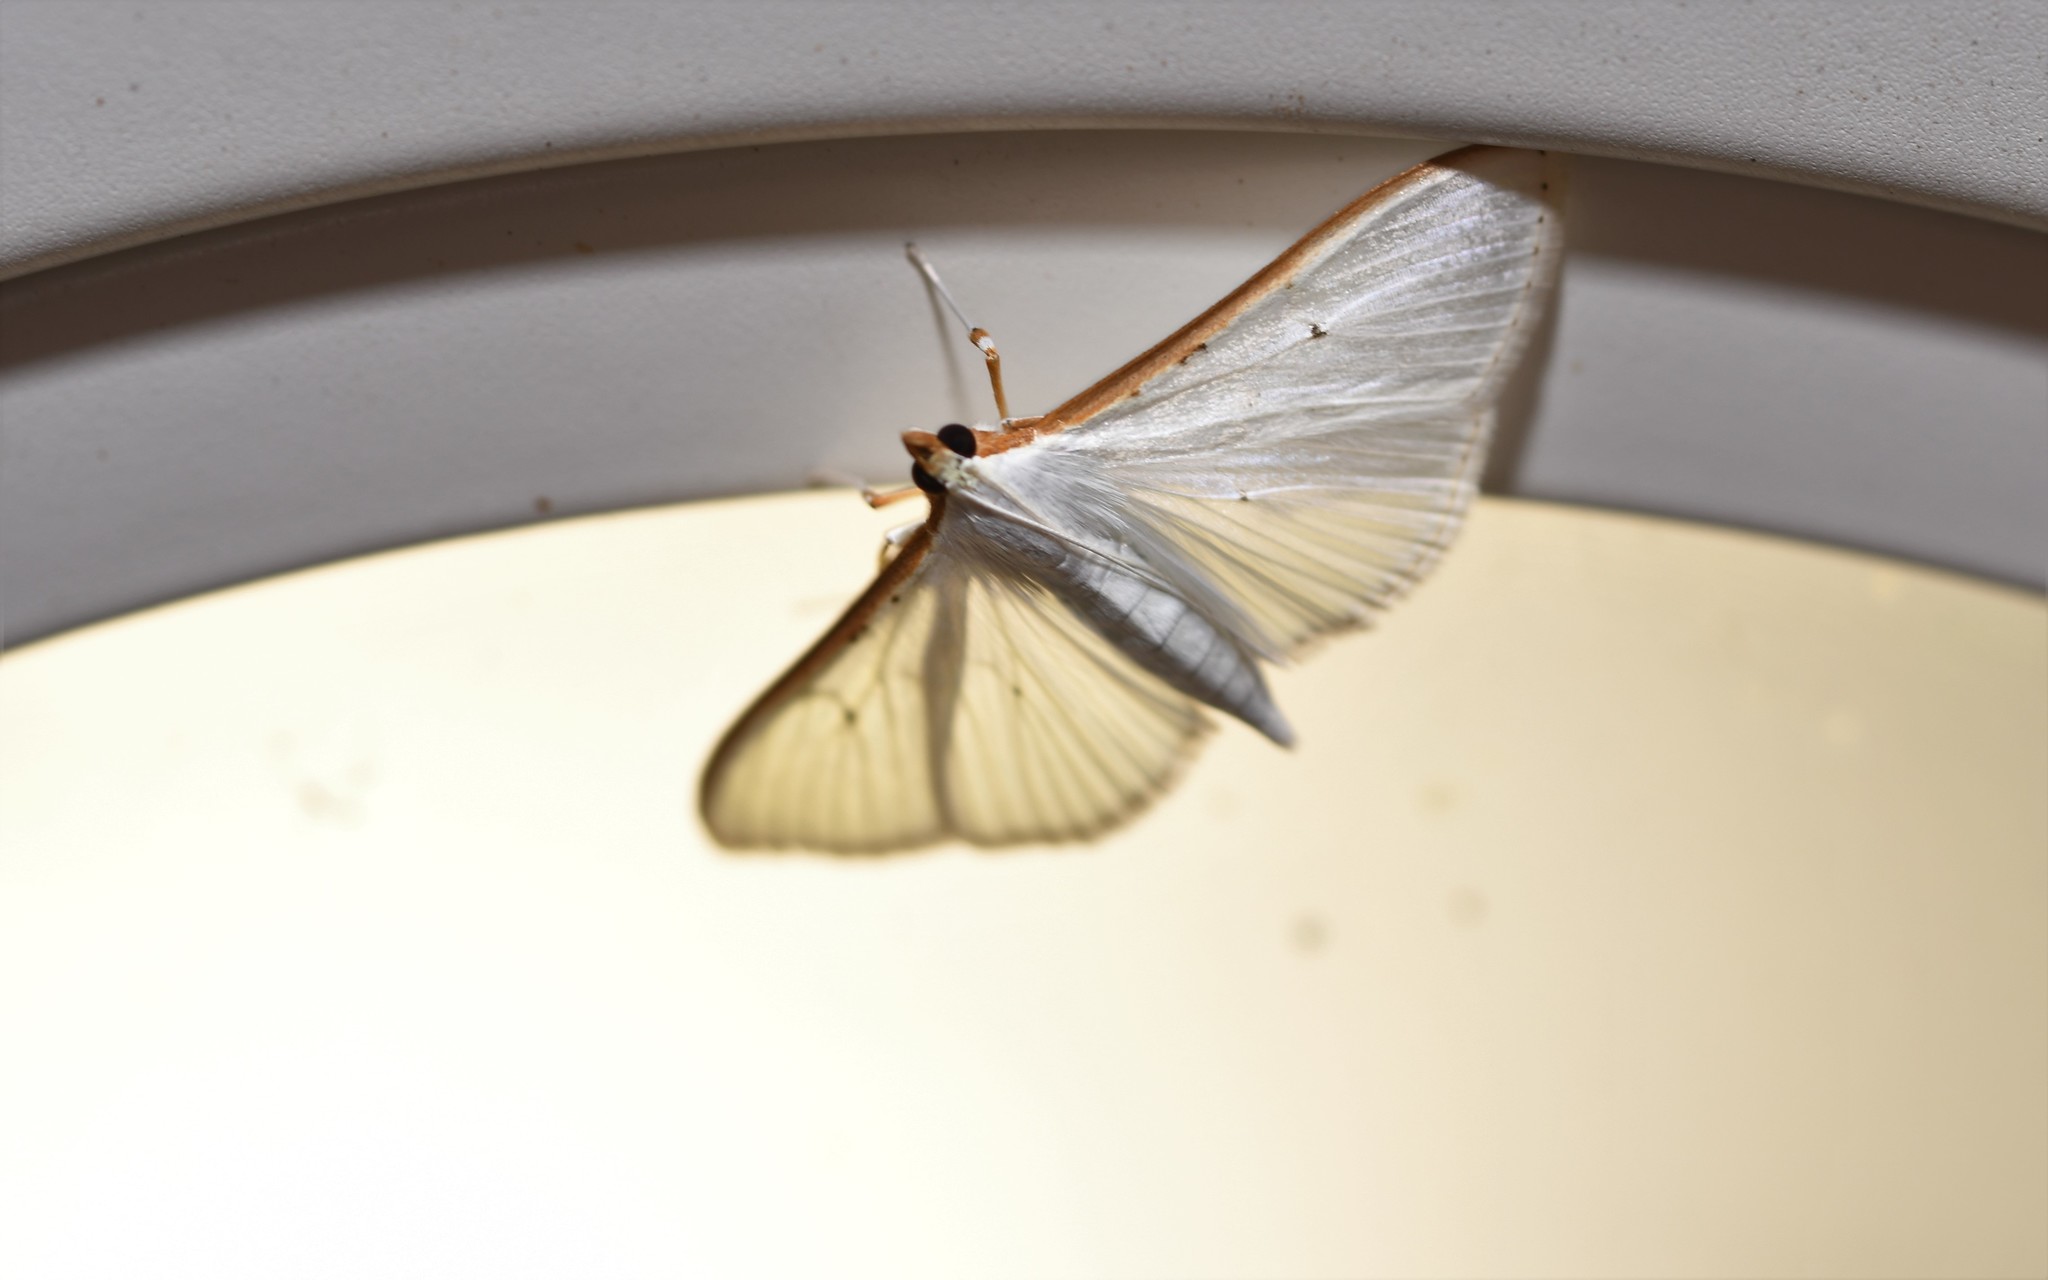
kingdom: Animalia
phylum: Arthropoda
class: Insecta
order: Lepidoptera
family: Crambidae
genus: Palpita
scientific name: Palpita vitrealis
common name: Olive-tree pearl
